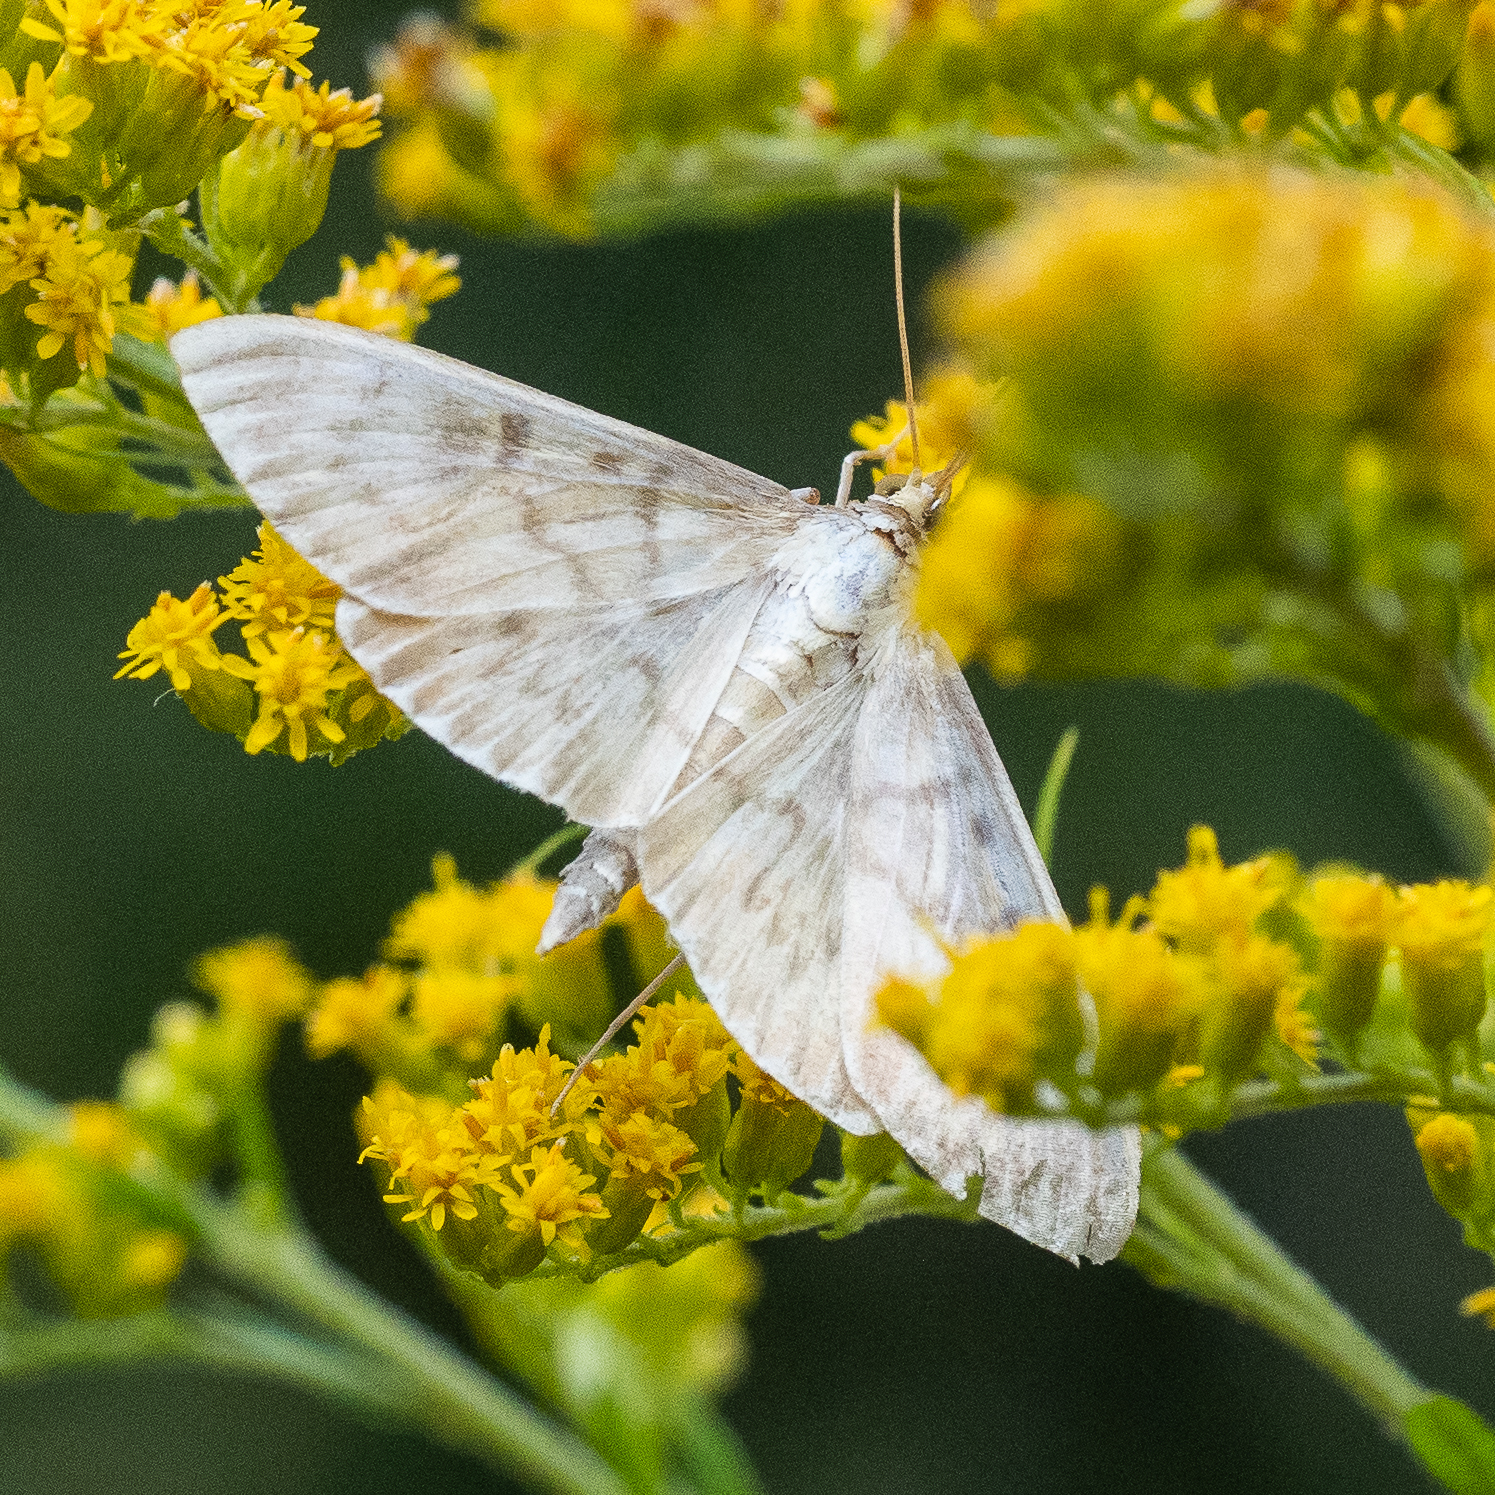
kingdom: Animalia
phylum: Arthropoda
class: Insecta
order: Lepidoptera
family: Crambidae
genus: Patania
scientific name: Patania ruralis
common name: Mother of pearl
